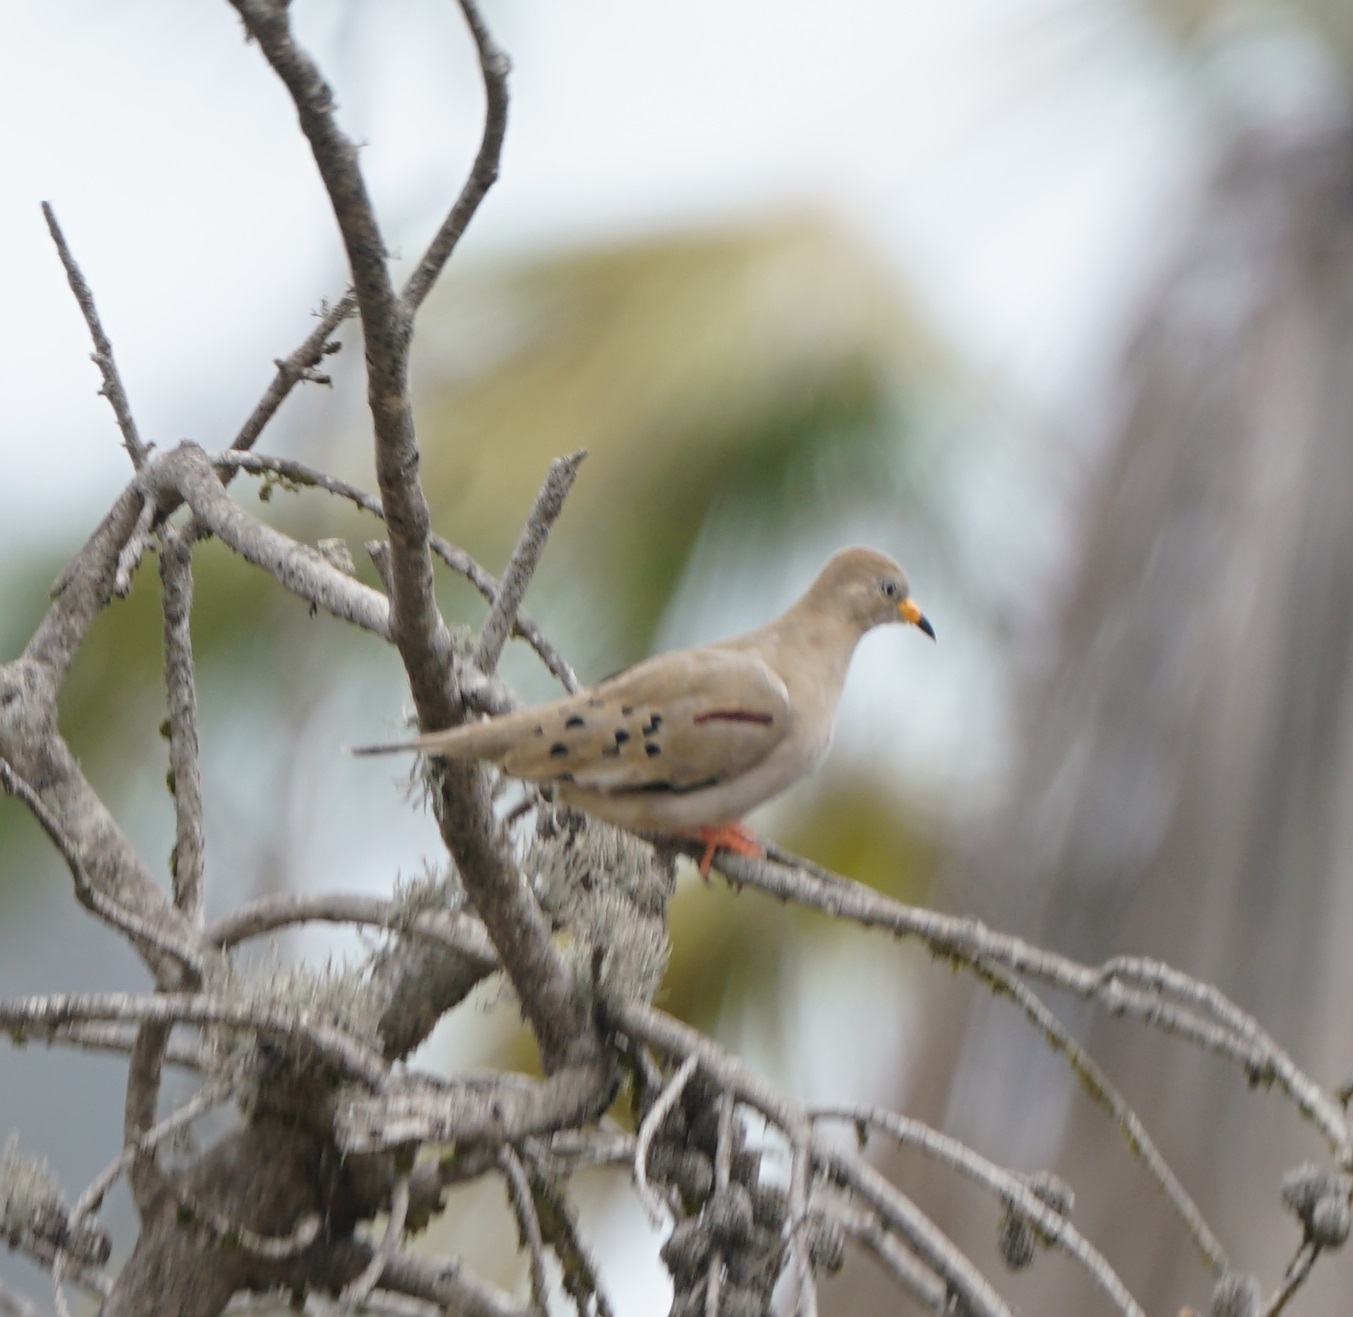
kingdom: Animalia
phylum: Chordata
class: Aves
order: Columbiformes
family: Columbidae
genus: Columbina
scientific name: Columbina cruziana
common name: Croaking ground dove
